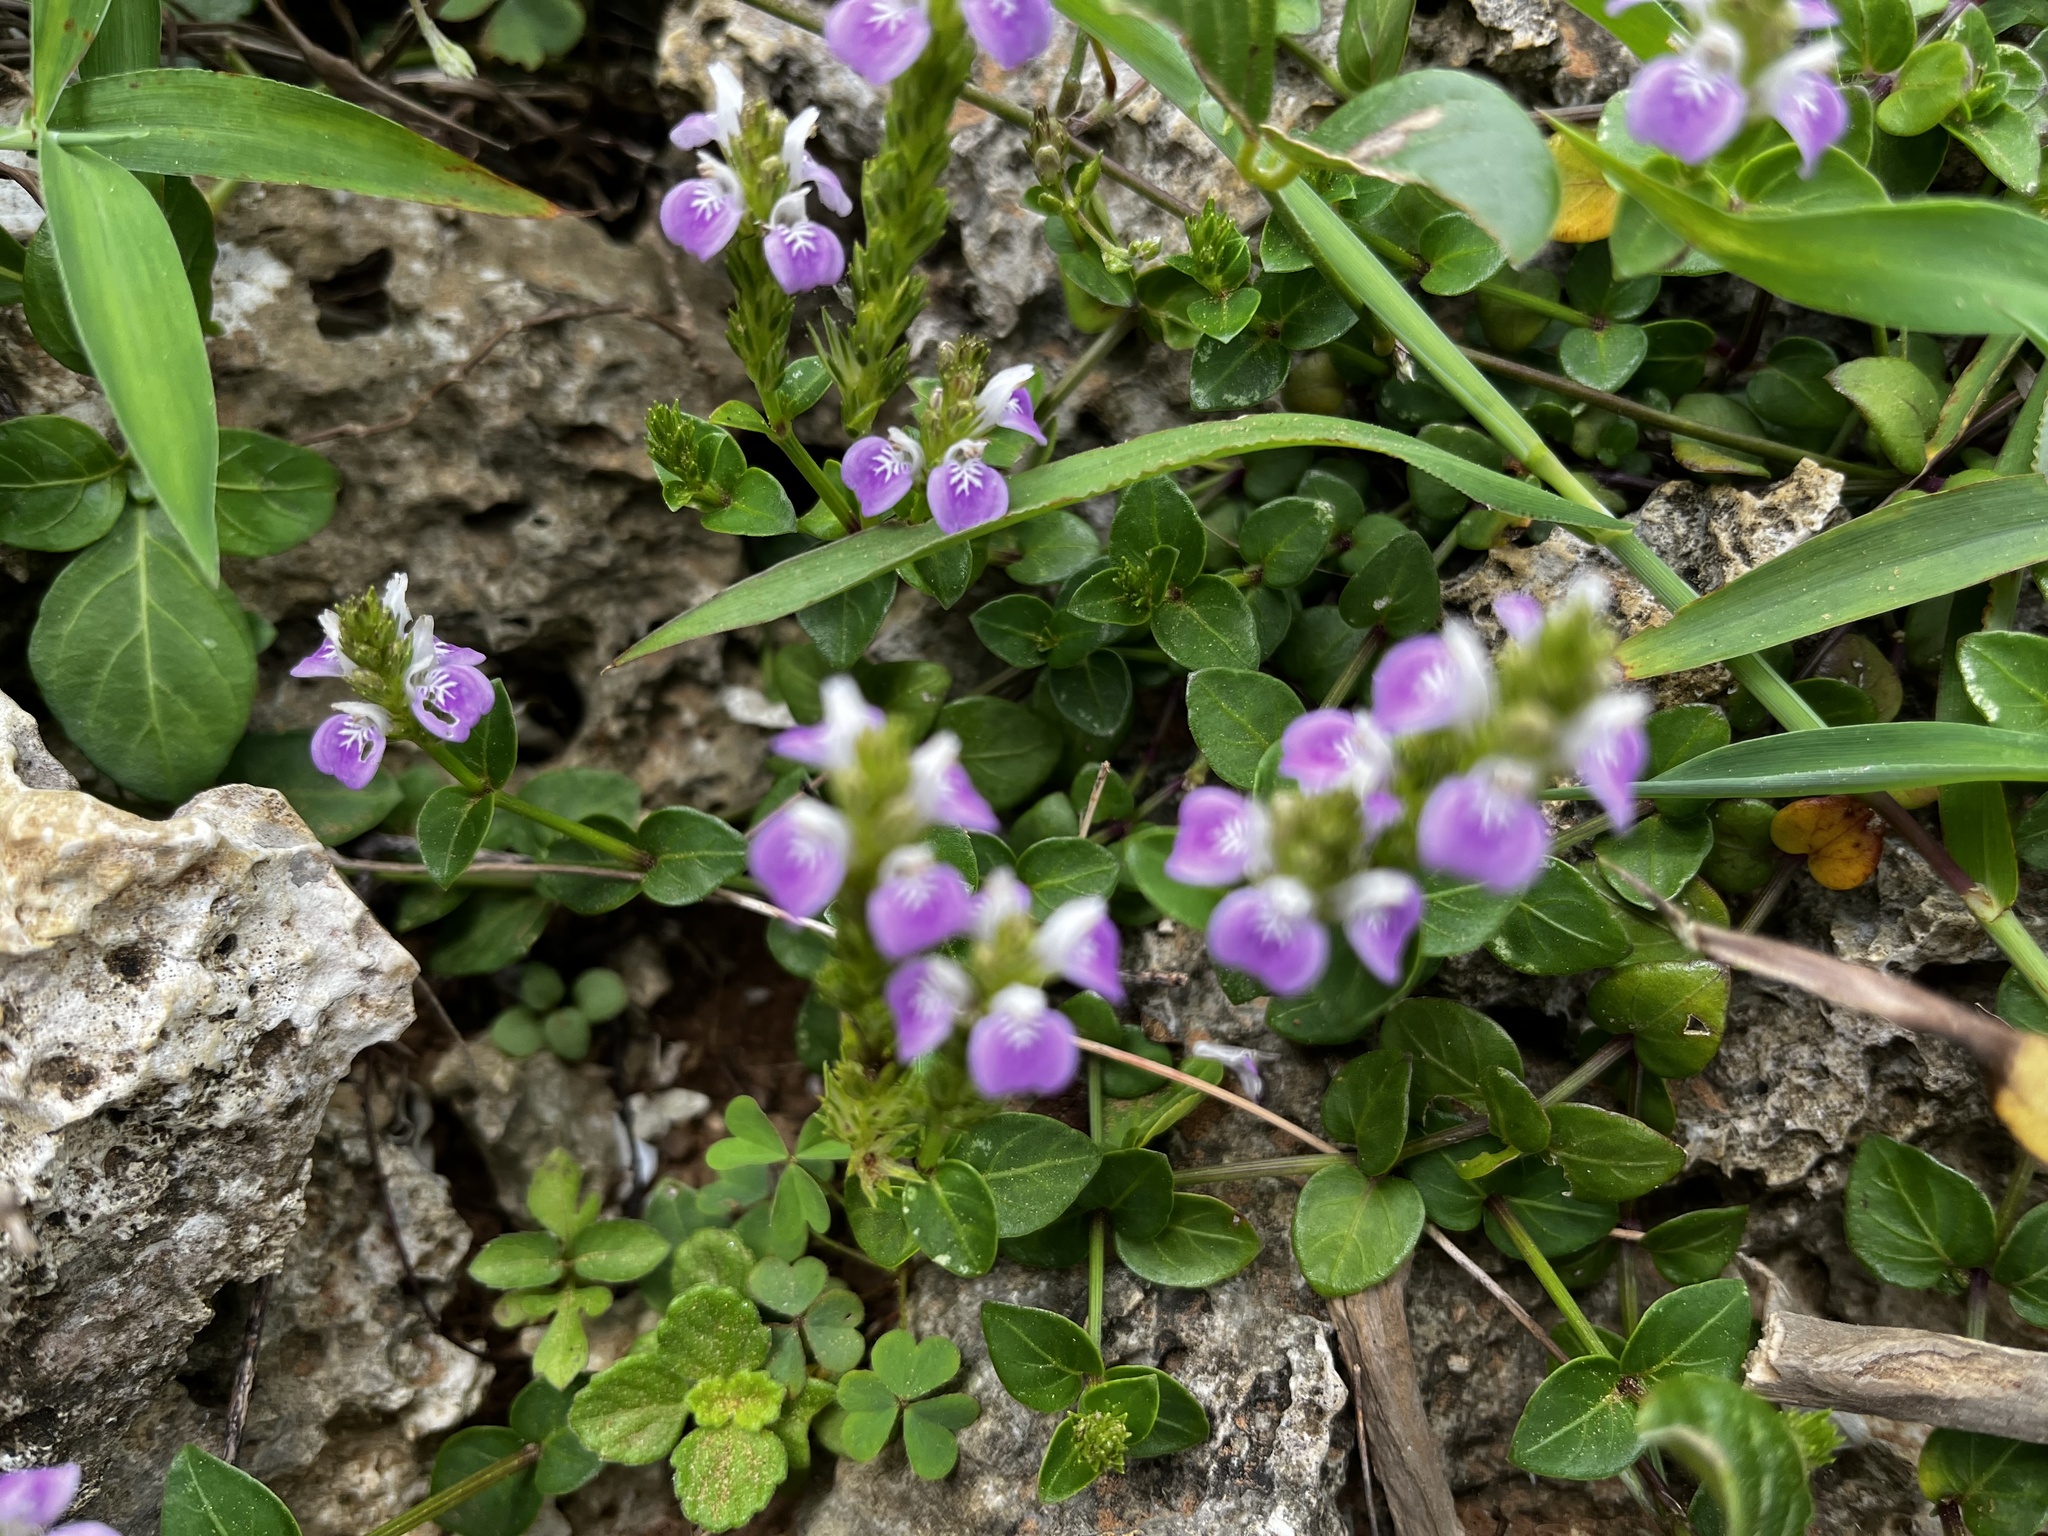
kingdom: Plantae
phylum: Tracheophyta
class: Magnoliopsida
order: Lamiales
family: Acanthaceae
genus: Rostellularia
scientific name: Rostellularia hayatae
